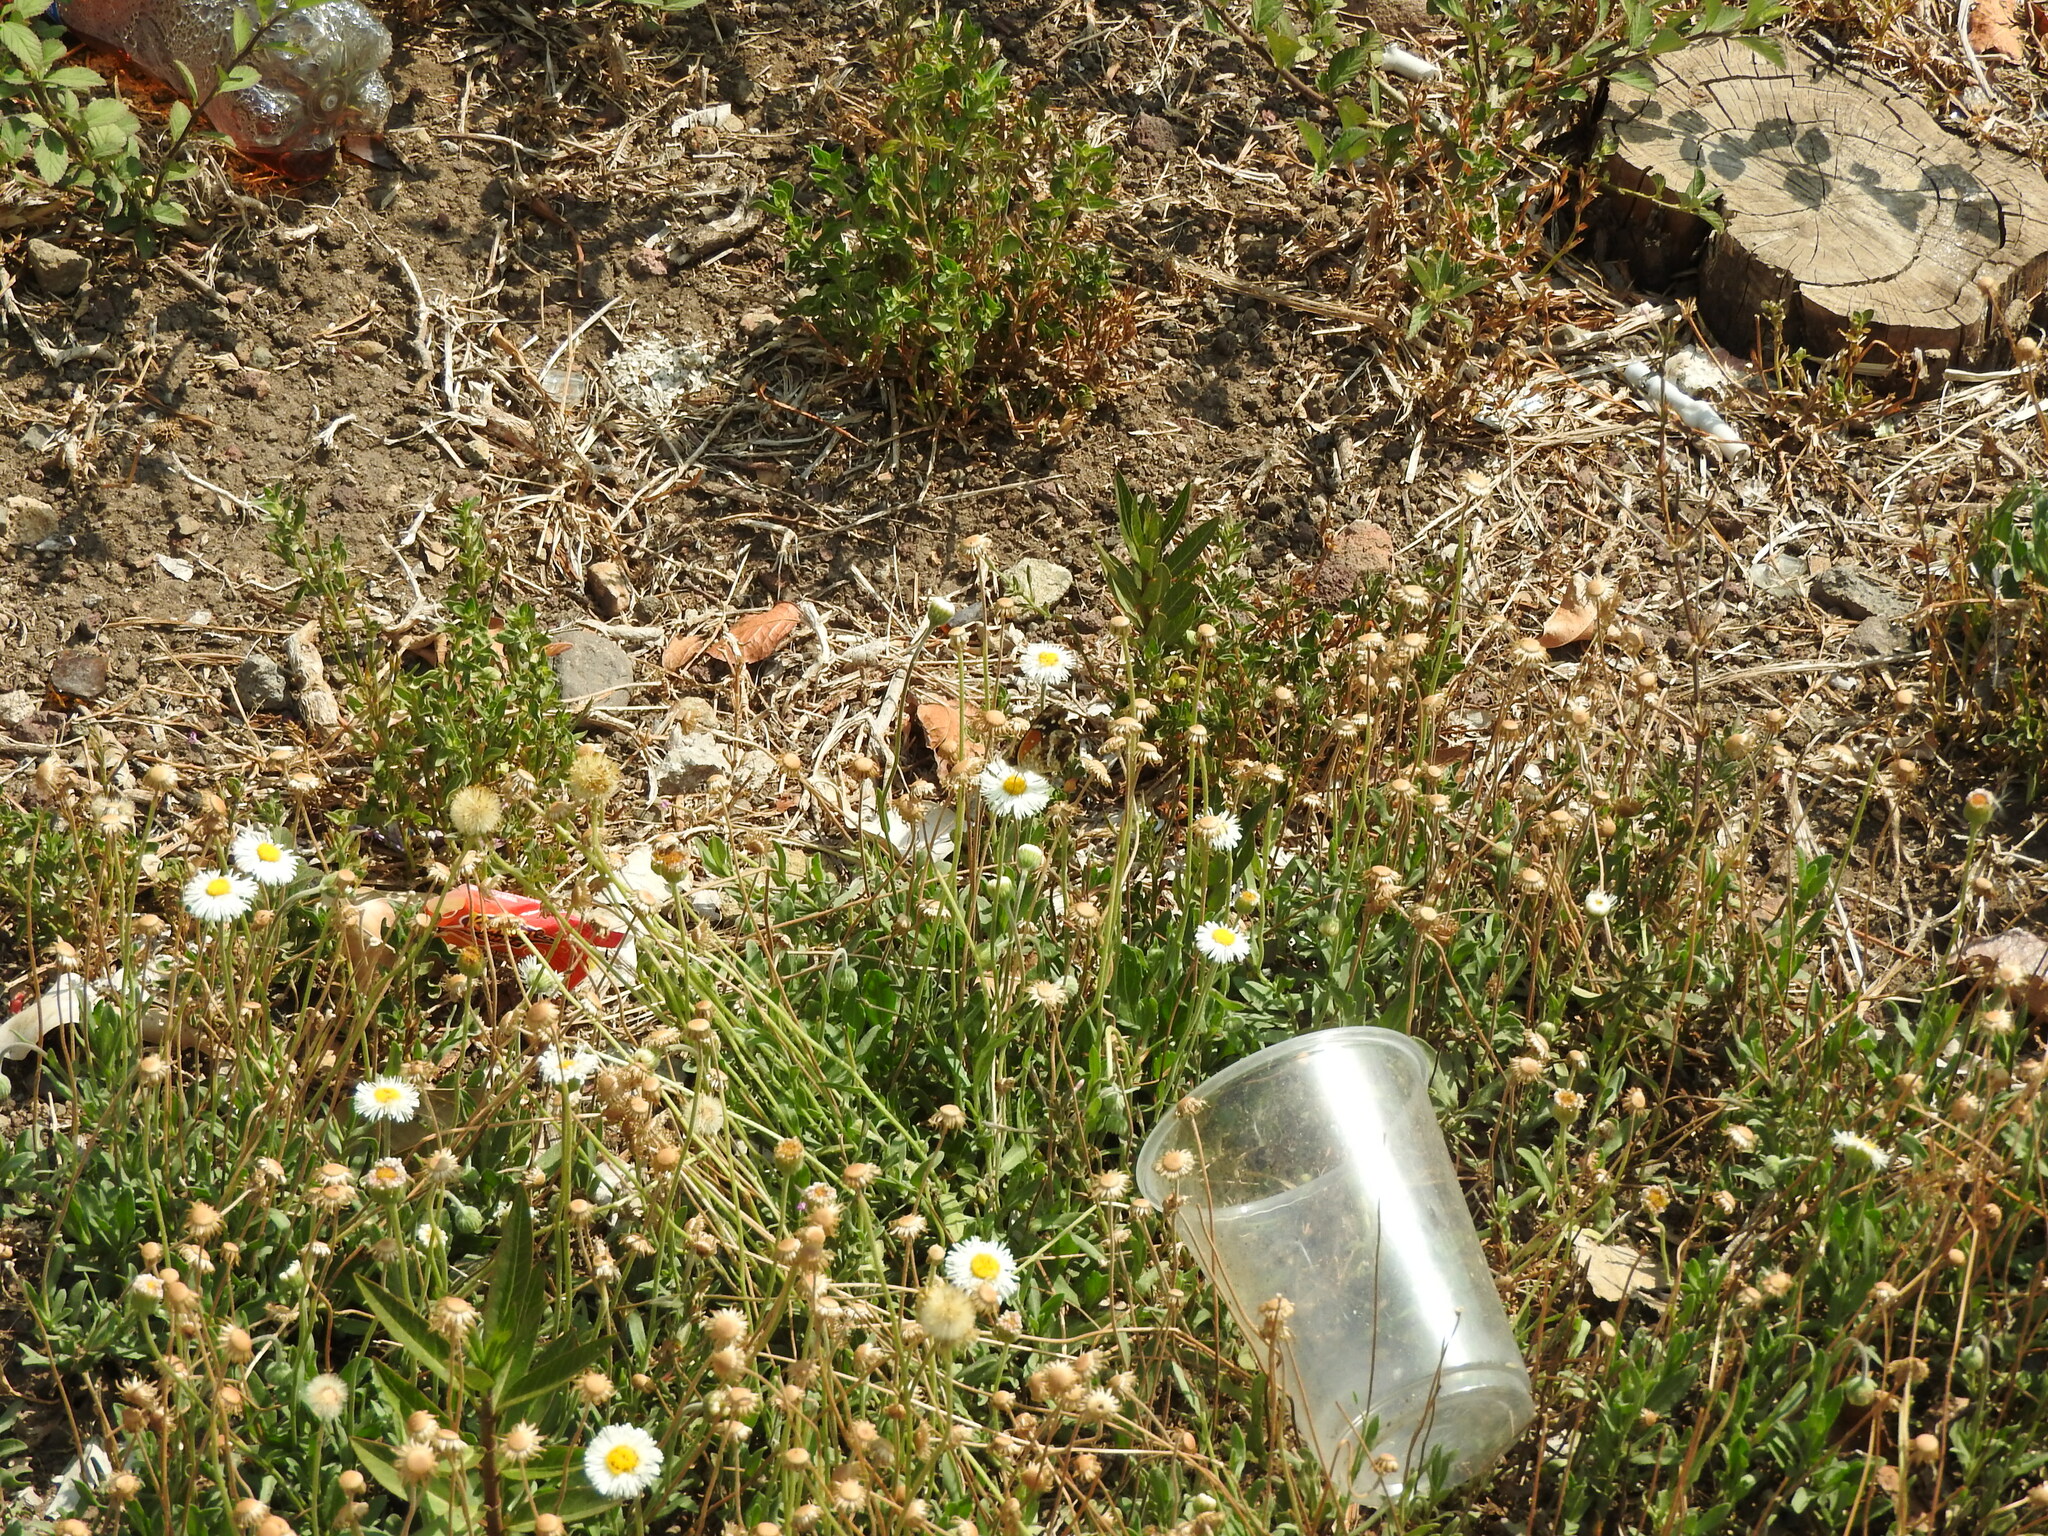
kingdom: Plantae
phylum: Tracheophyta
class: Magnoliopsida
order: Asterales
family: Asteraceae
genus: Erigeron
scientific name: Erigeron longipes
